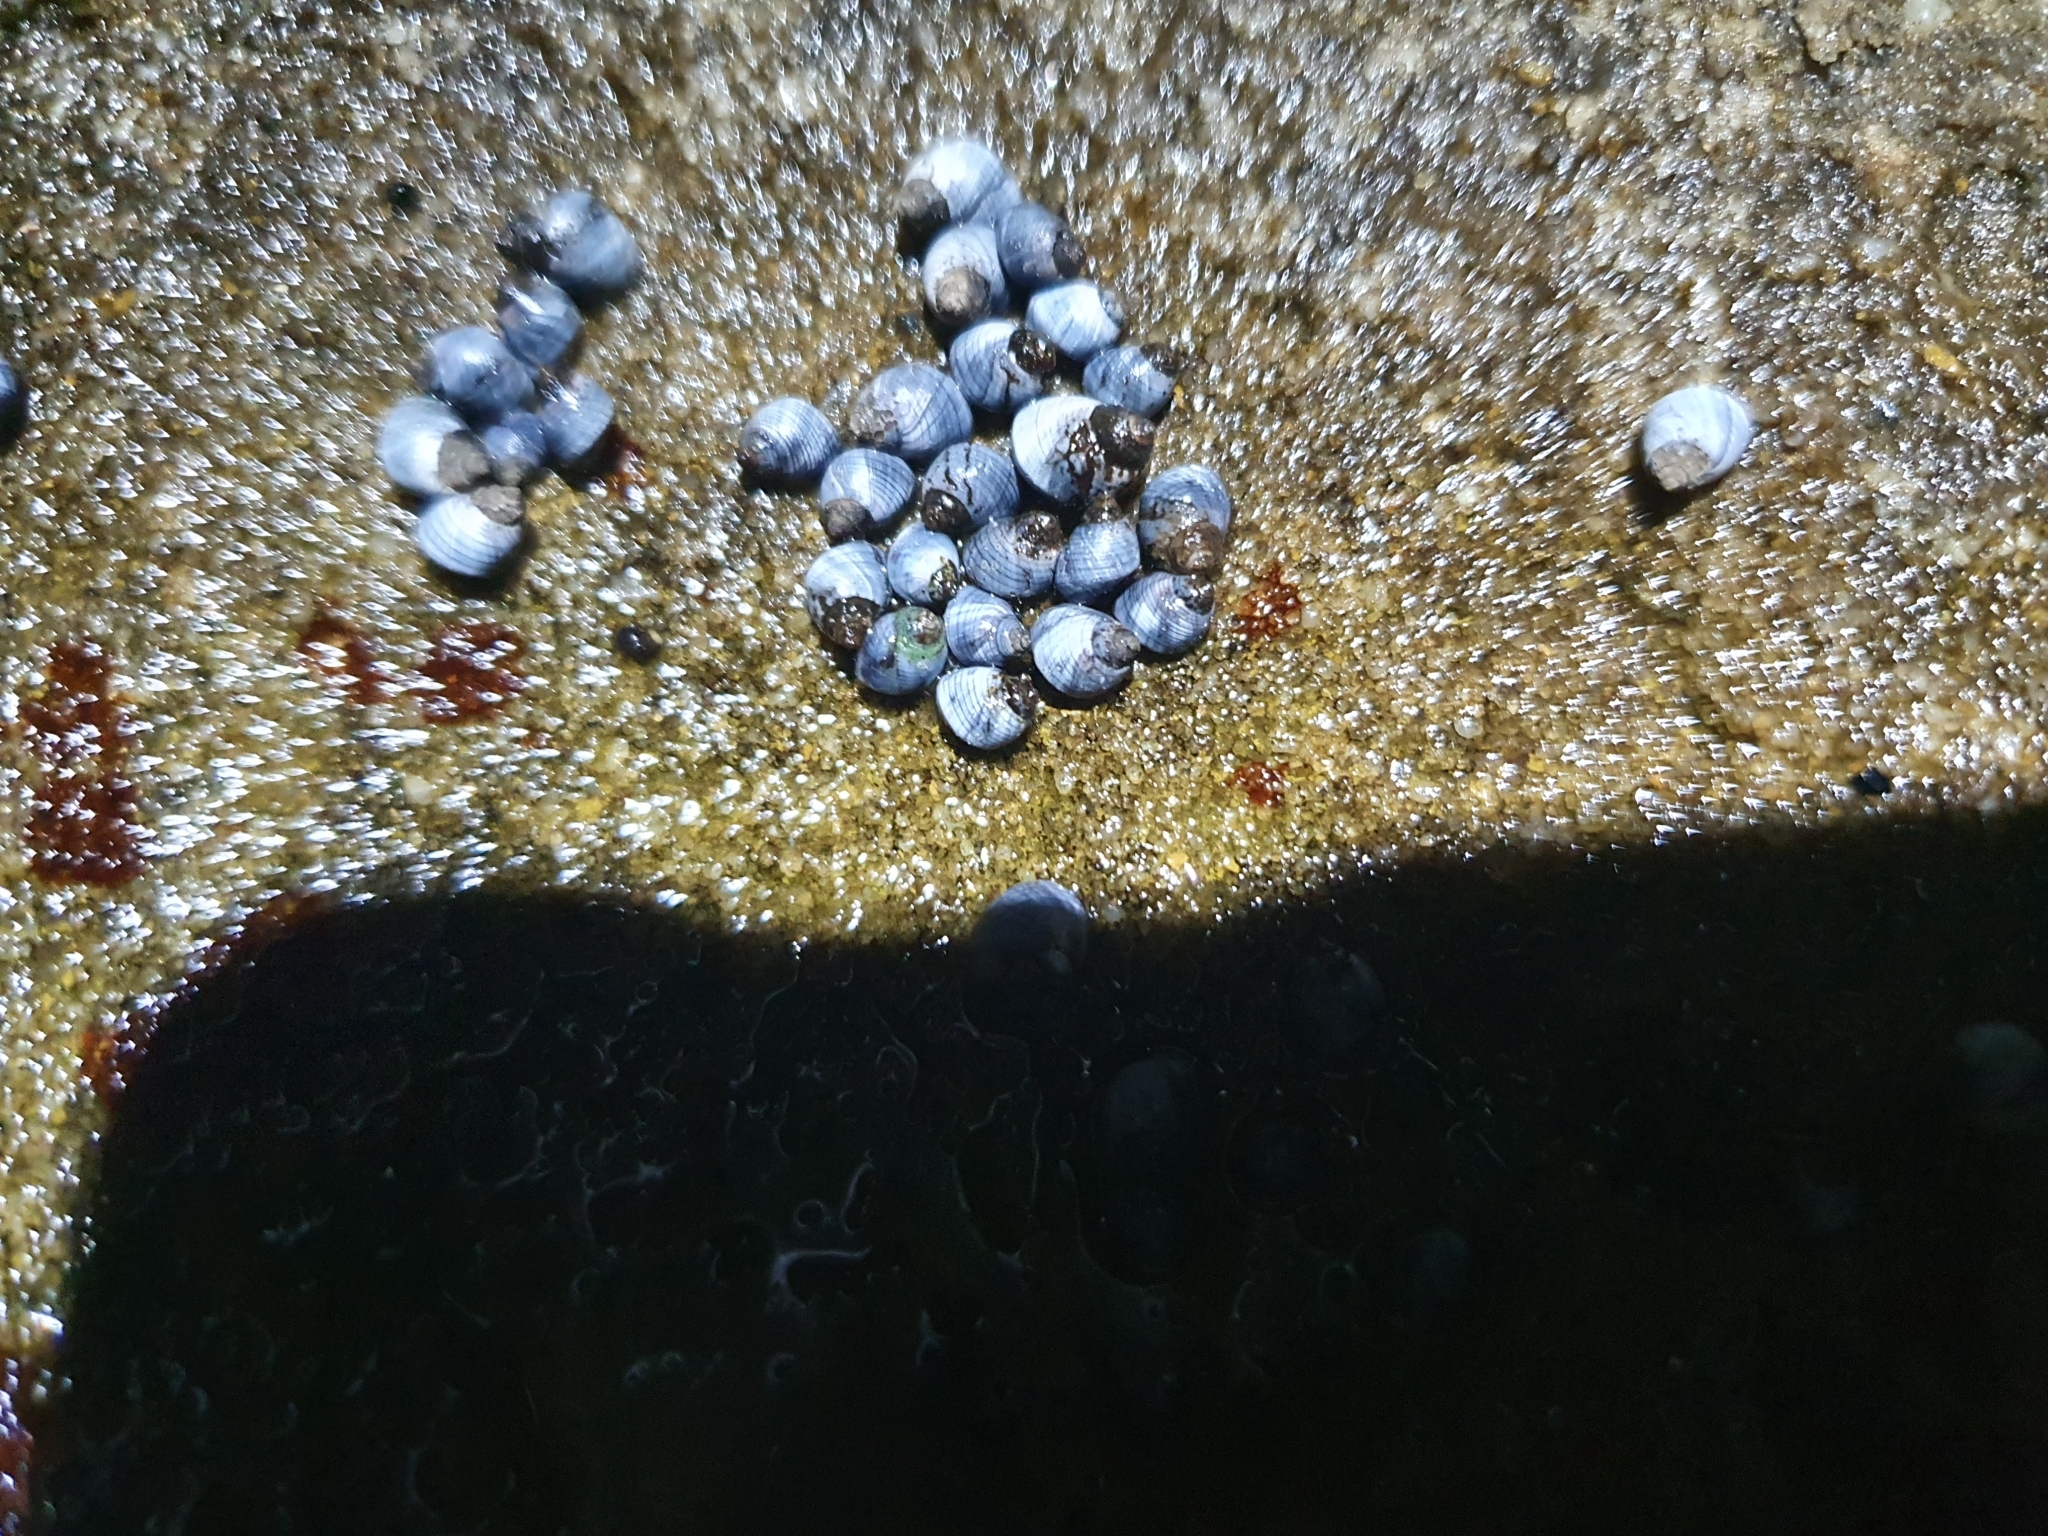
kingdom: Animalia
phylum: Mollusca
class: Gastropoda
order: Littorinimorpha
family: Littorinidae
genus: Austrolittorina
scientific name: Austrolittorina unifasciata
